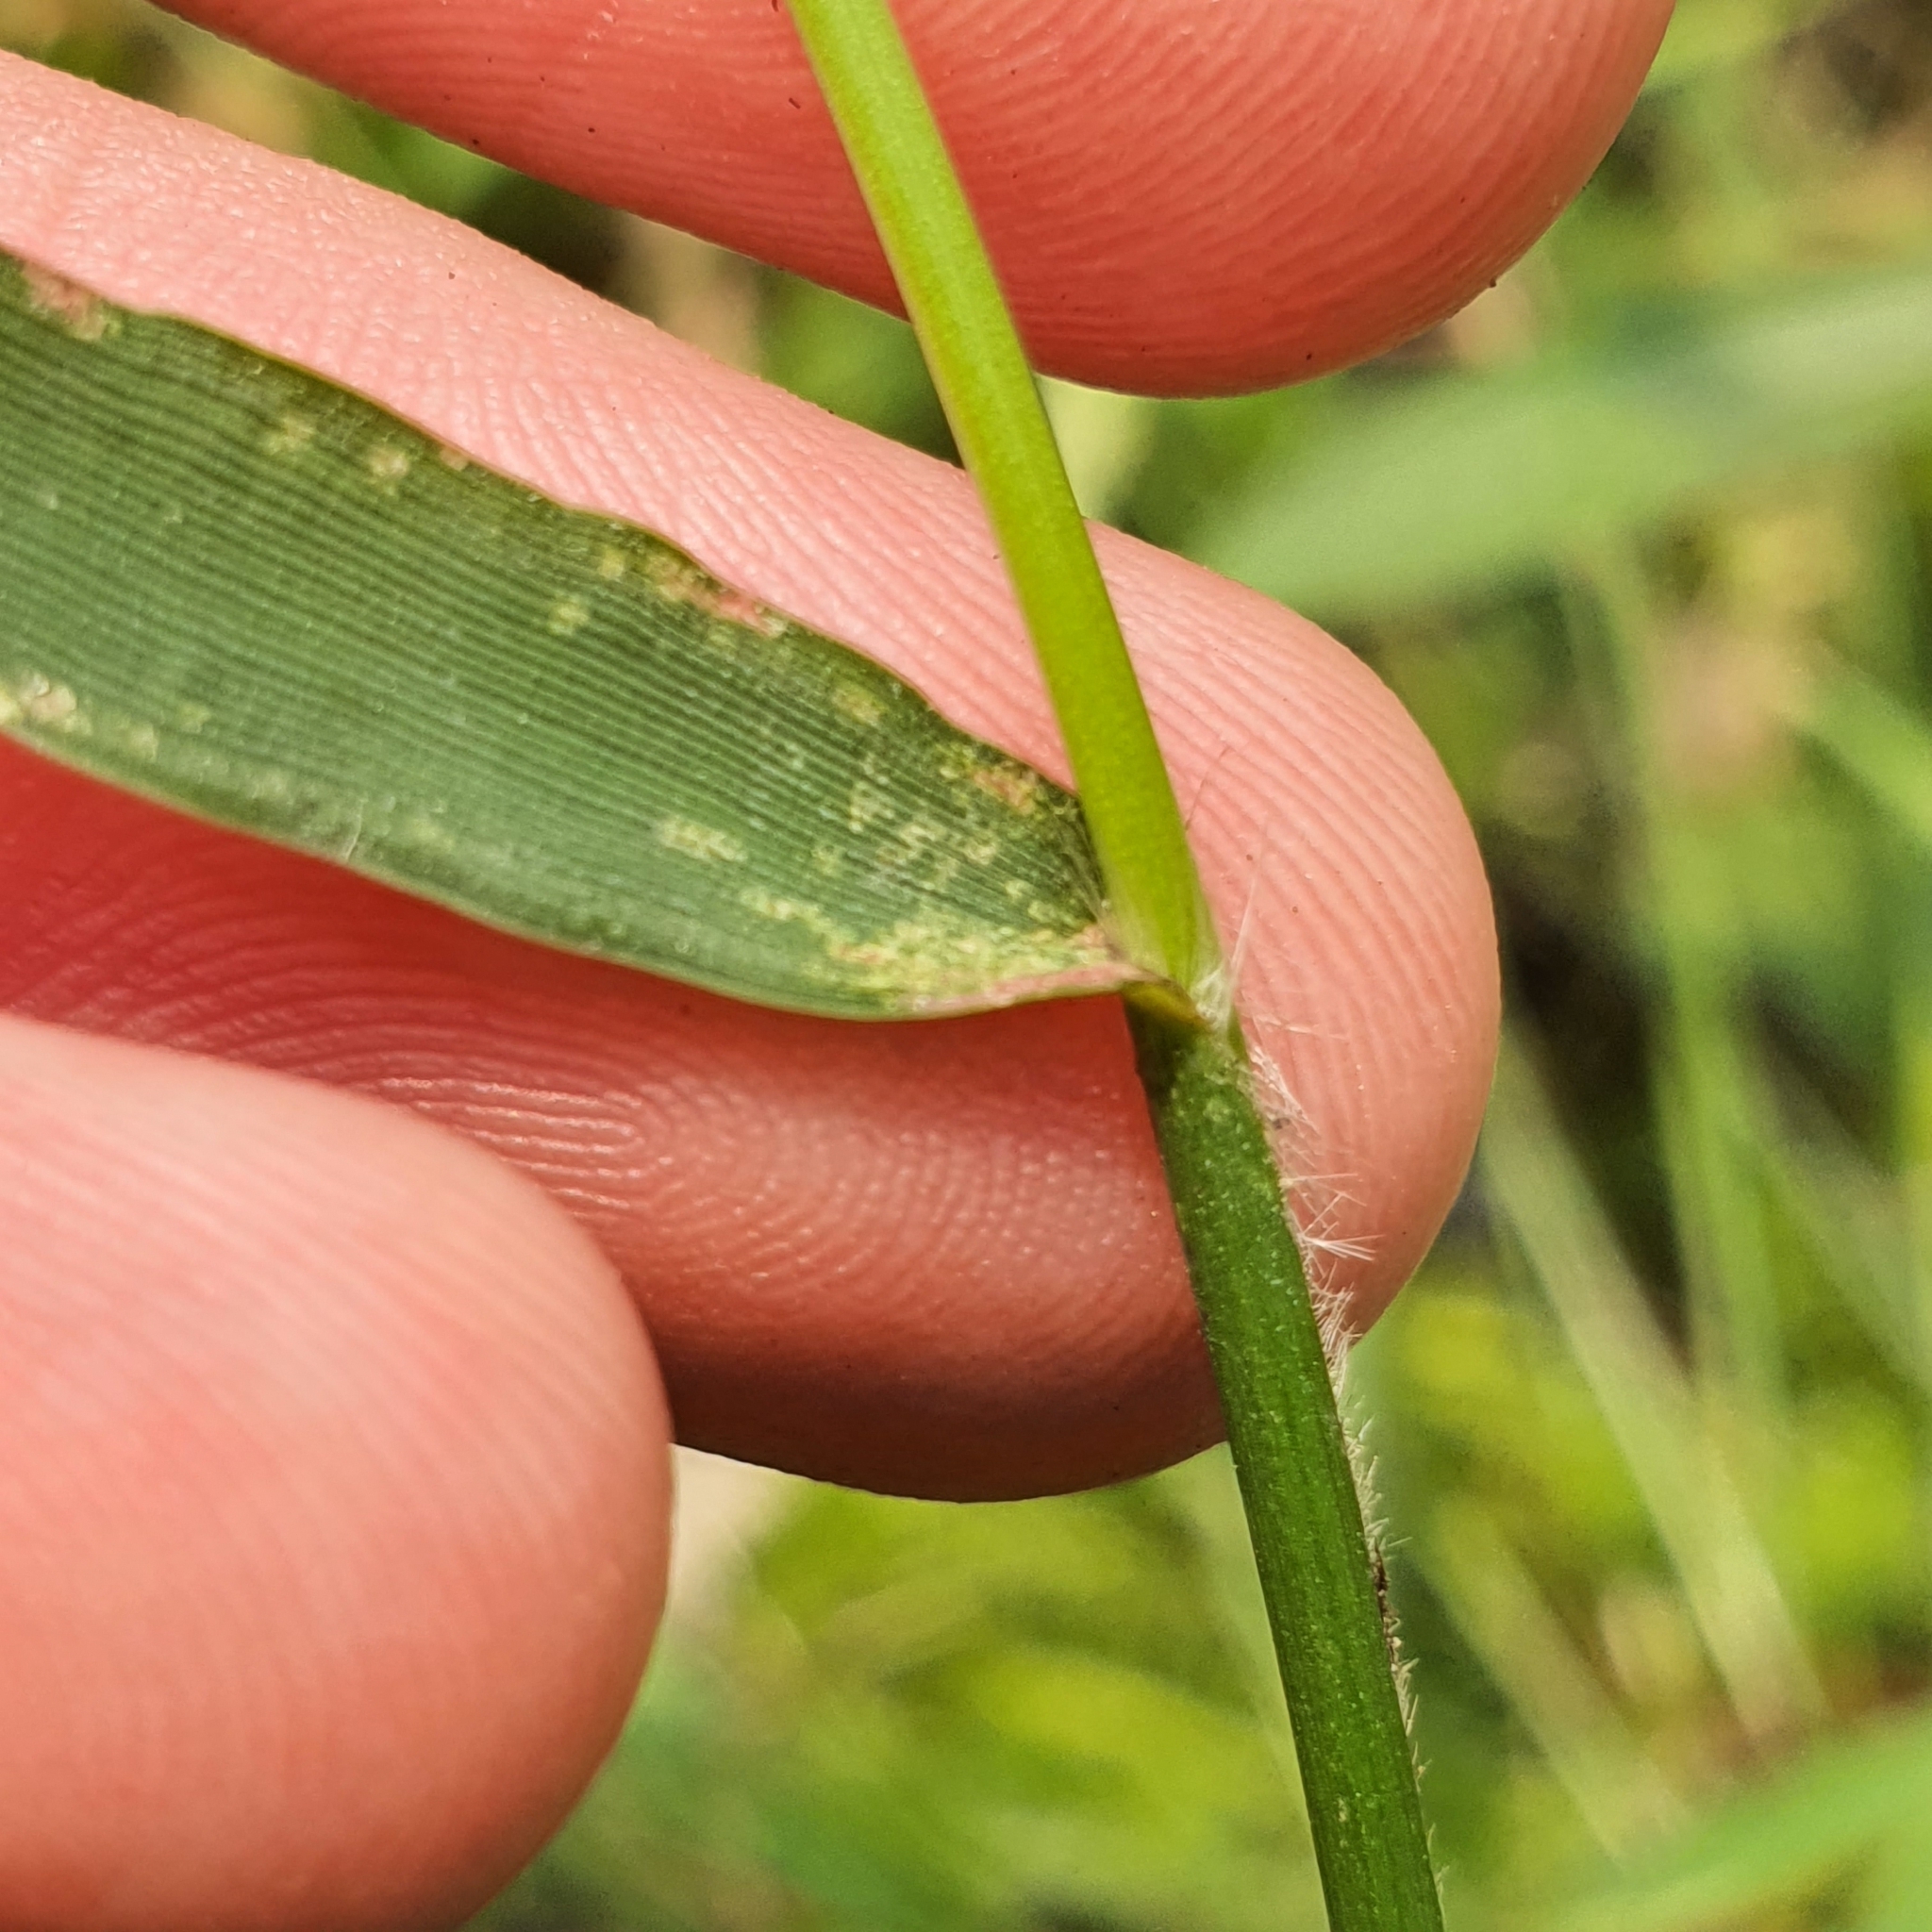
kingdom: Plantae
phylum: Tracheophyta
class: Liliopsida
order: Poales
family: Poaceae
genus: Isachne
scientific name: Isachne globosa
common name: Swamp millet
